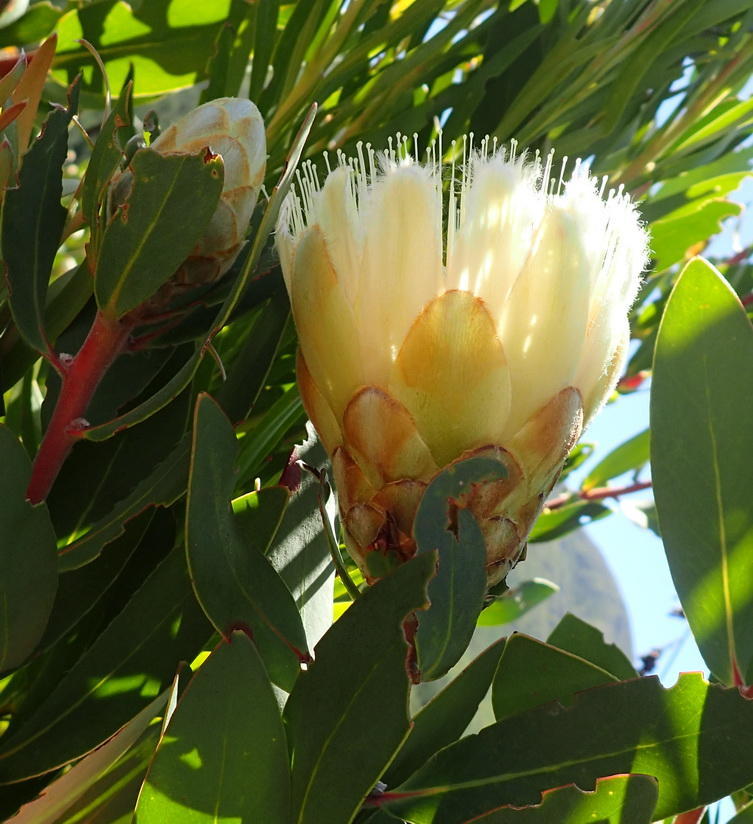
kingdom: Plantae
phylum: Tracheophyta
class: Magnoliopsida
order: Proteales
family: Proteaceae
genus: Protea
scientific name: Protea mundii
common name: Forest sugarbush
